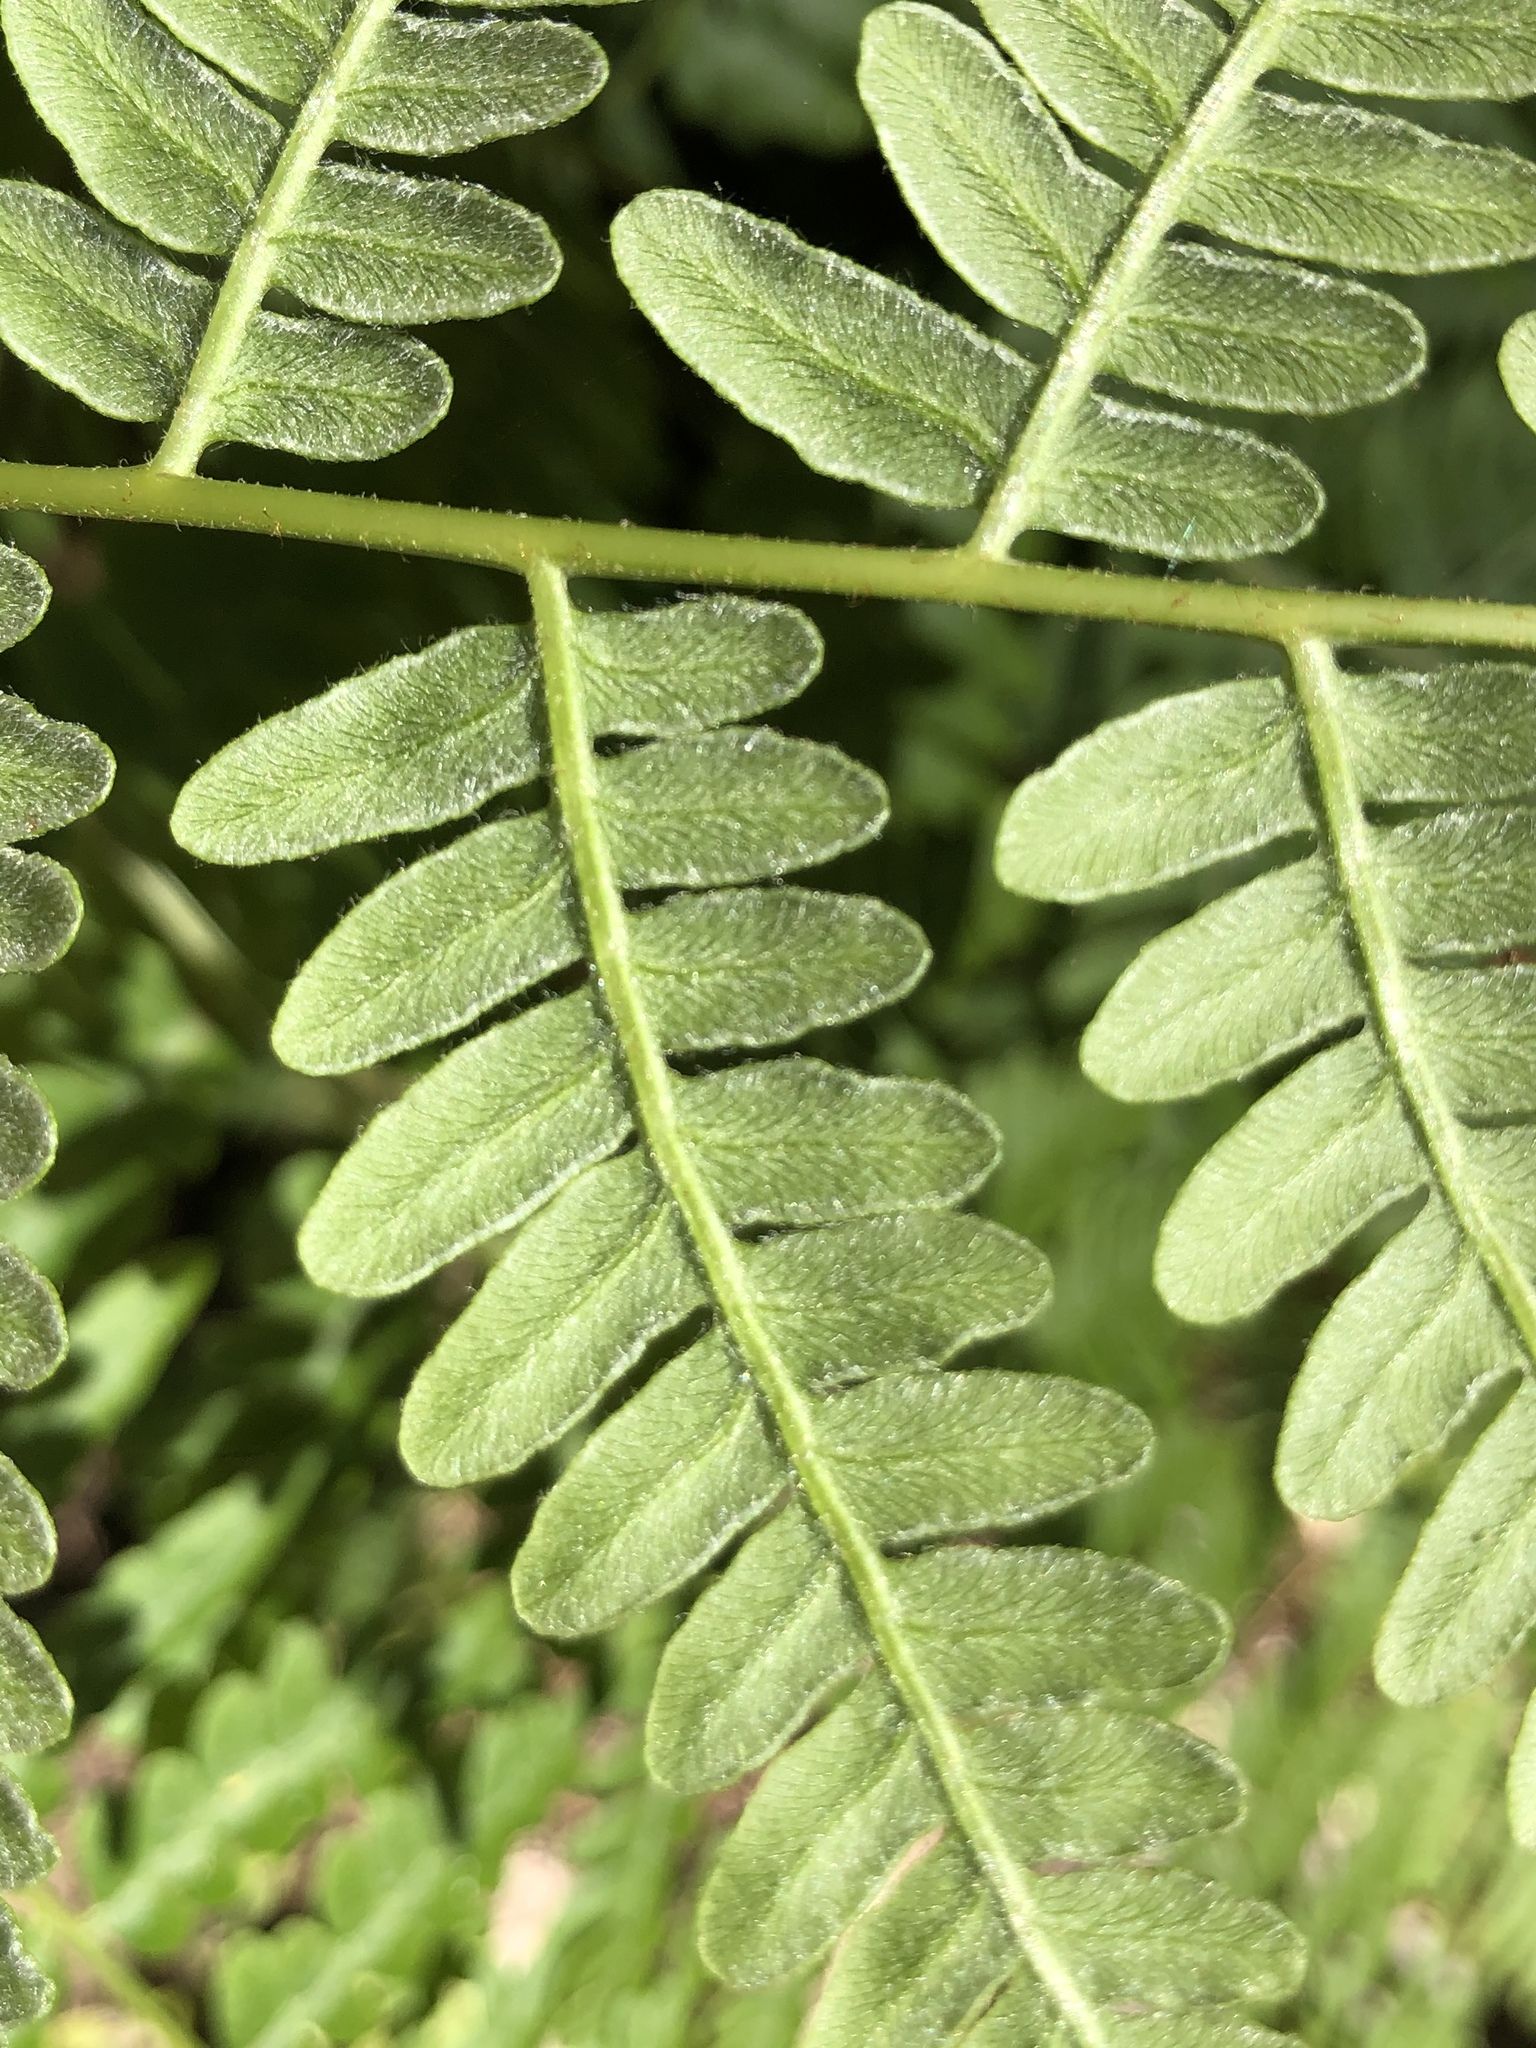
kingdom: Plantae
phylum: Tracheophyta
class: Polypodiopsida
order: Polypodiales
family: Dennstaedtiaceae
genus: Pteridium
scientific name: Pteridium aquilinum
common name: Bracken
